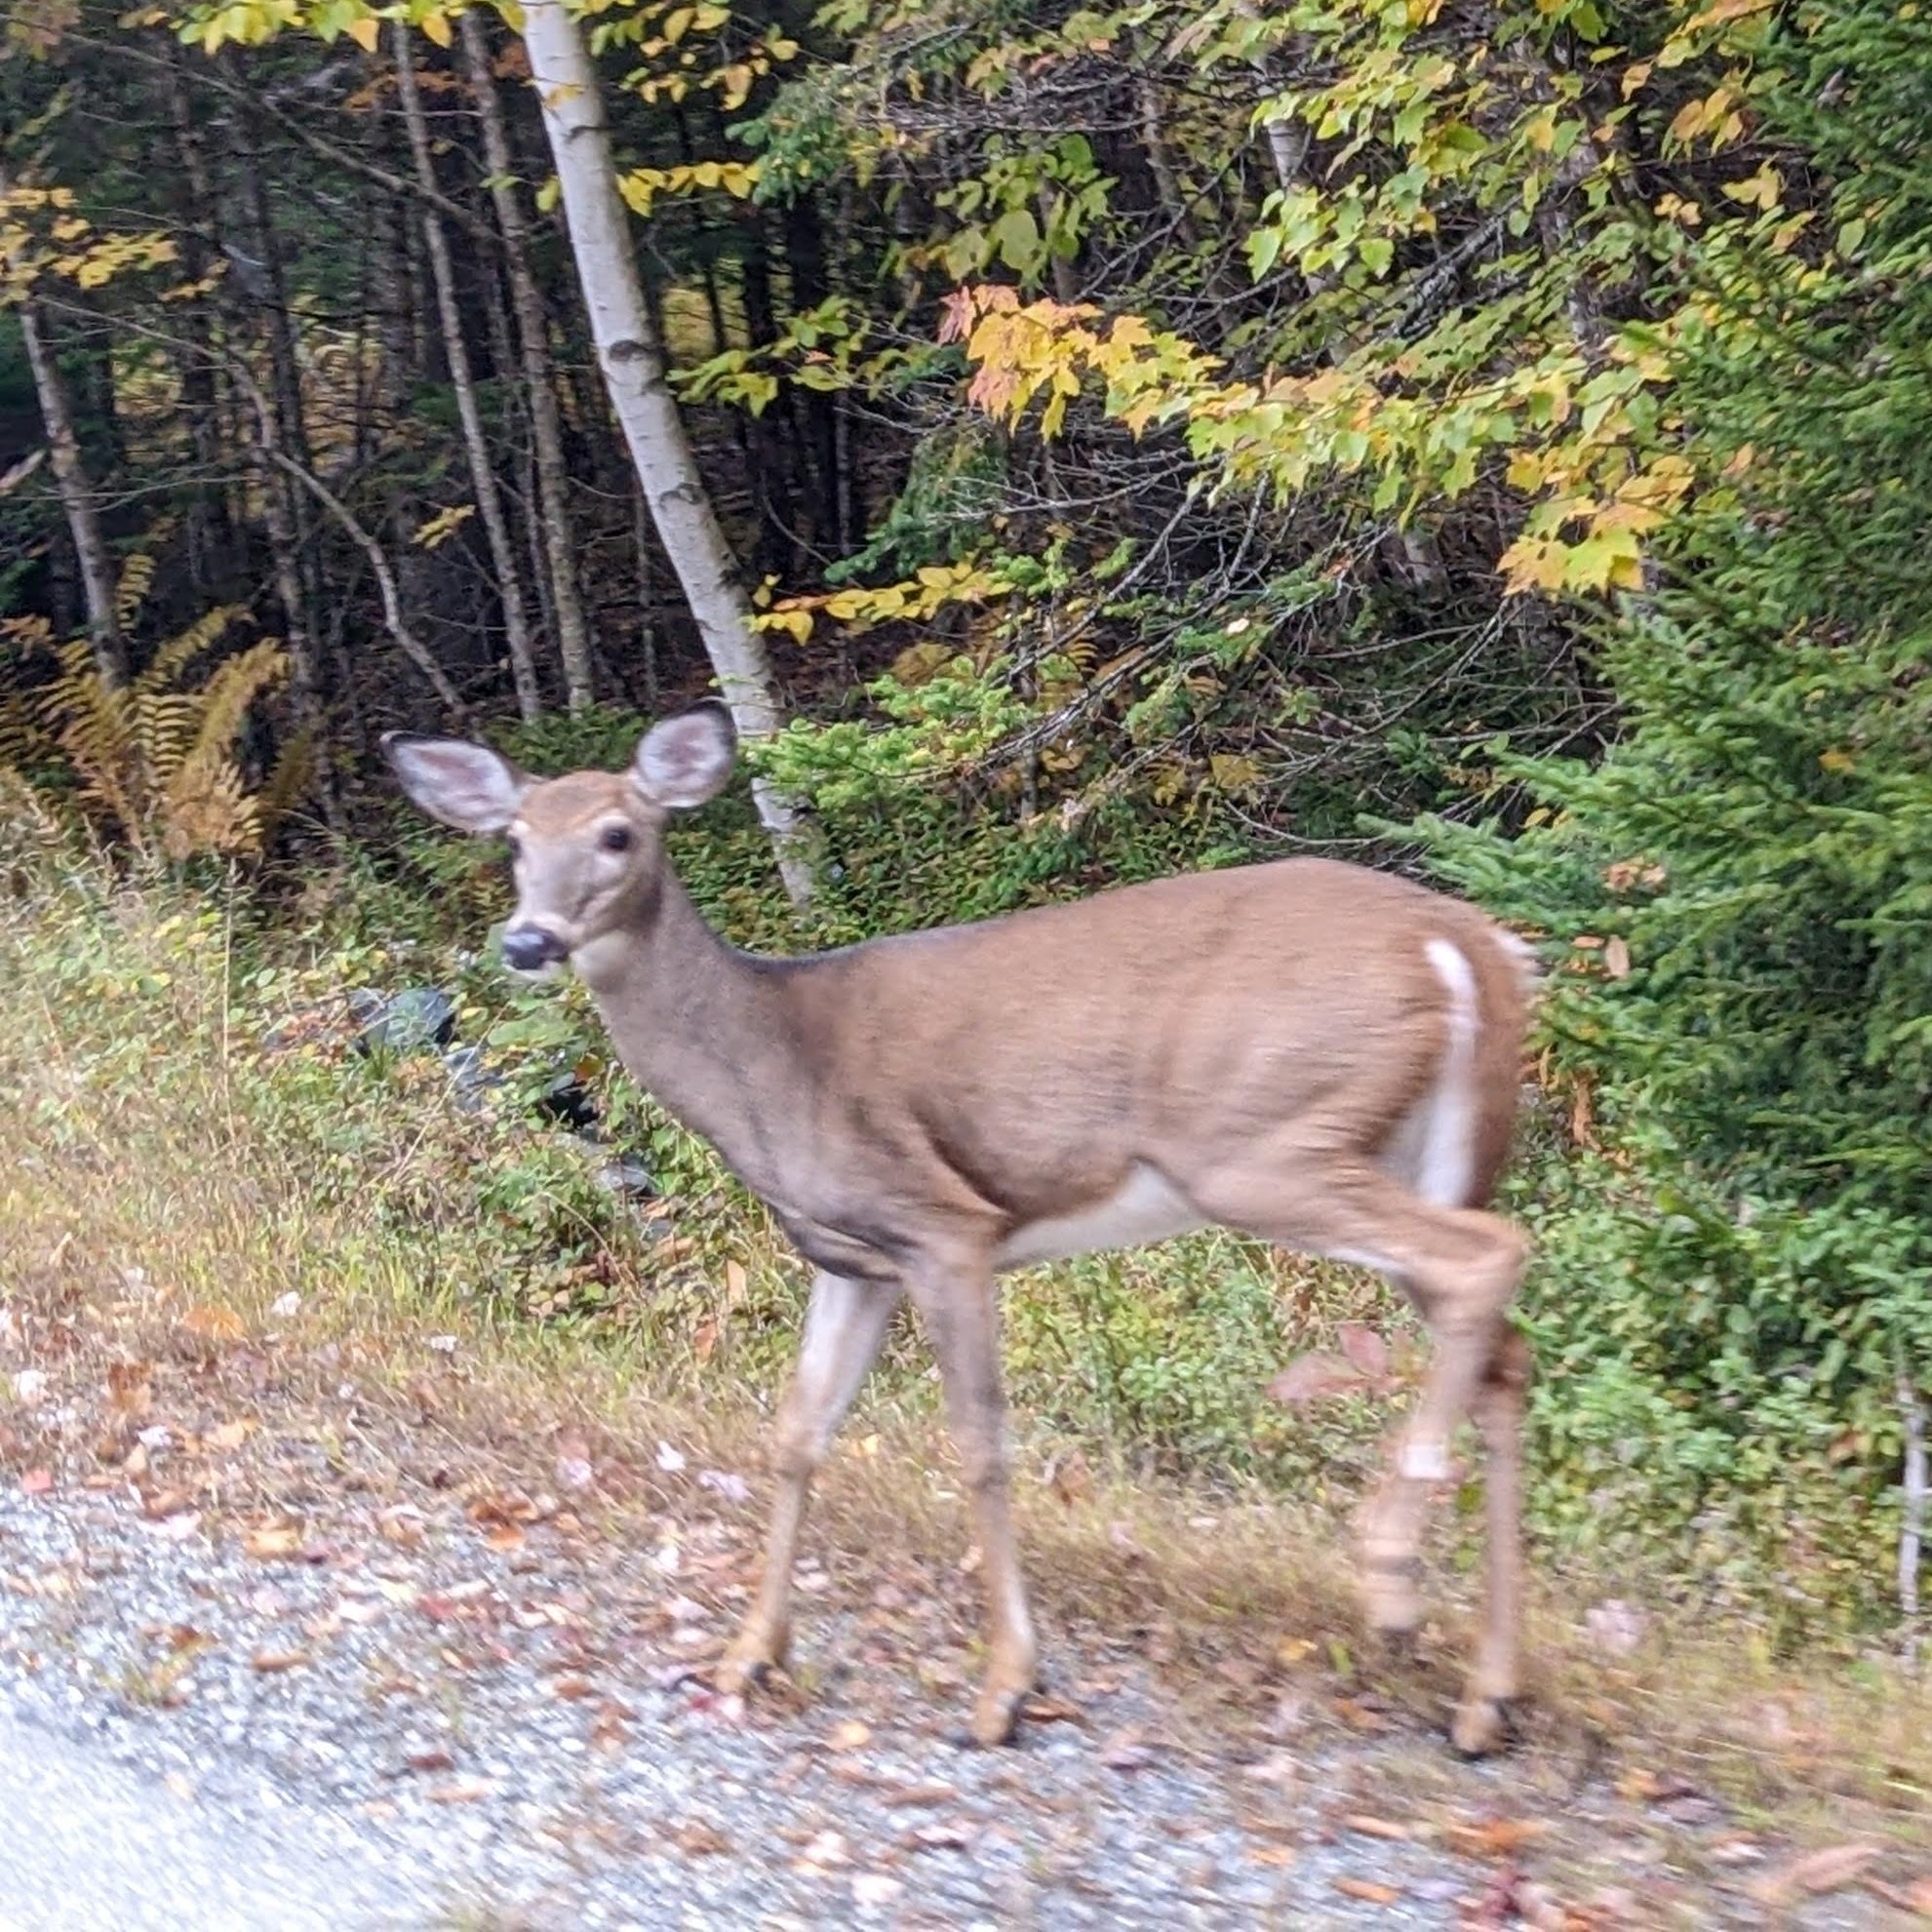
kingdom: Animalia
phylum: Chordata
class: Mammalia
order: Artiodactyla
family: Cervidae
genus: Odocoileus
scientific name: Odocoileus virginianus
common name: White-tailed deer
